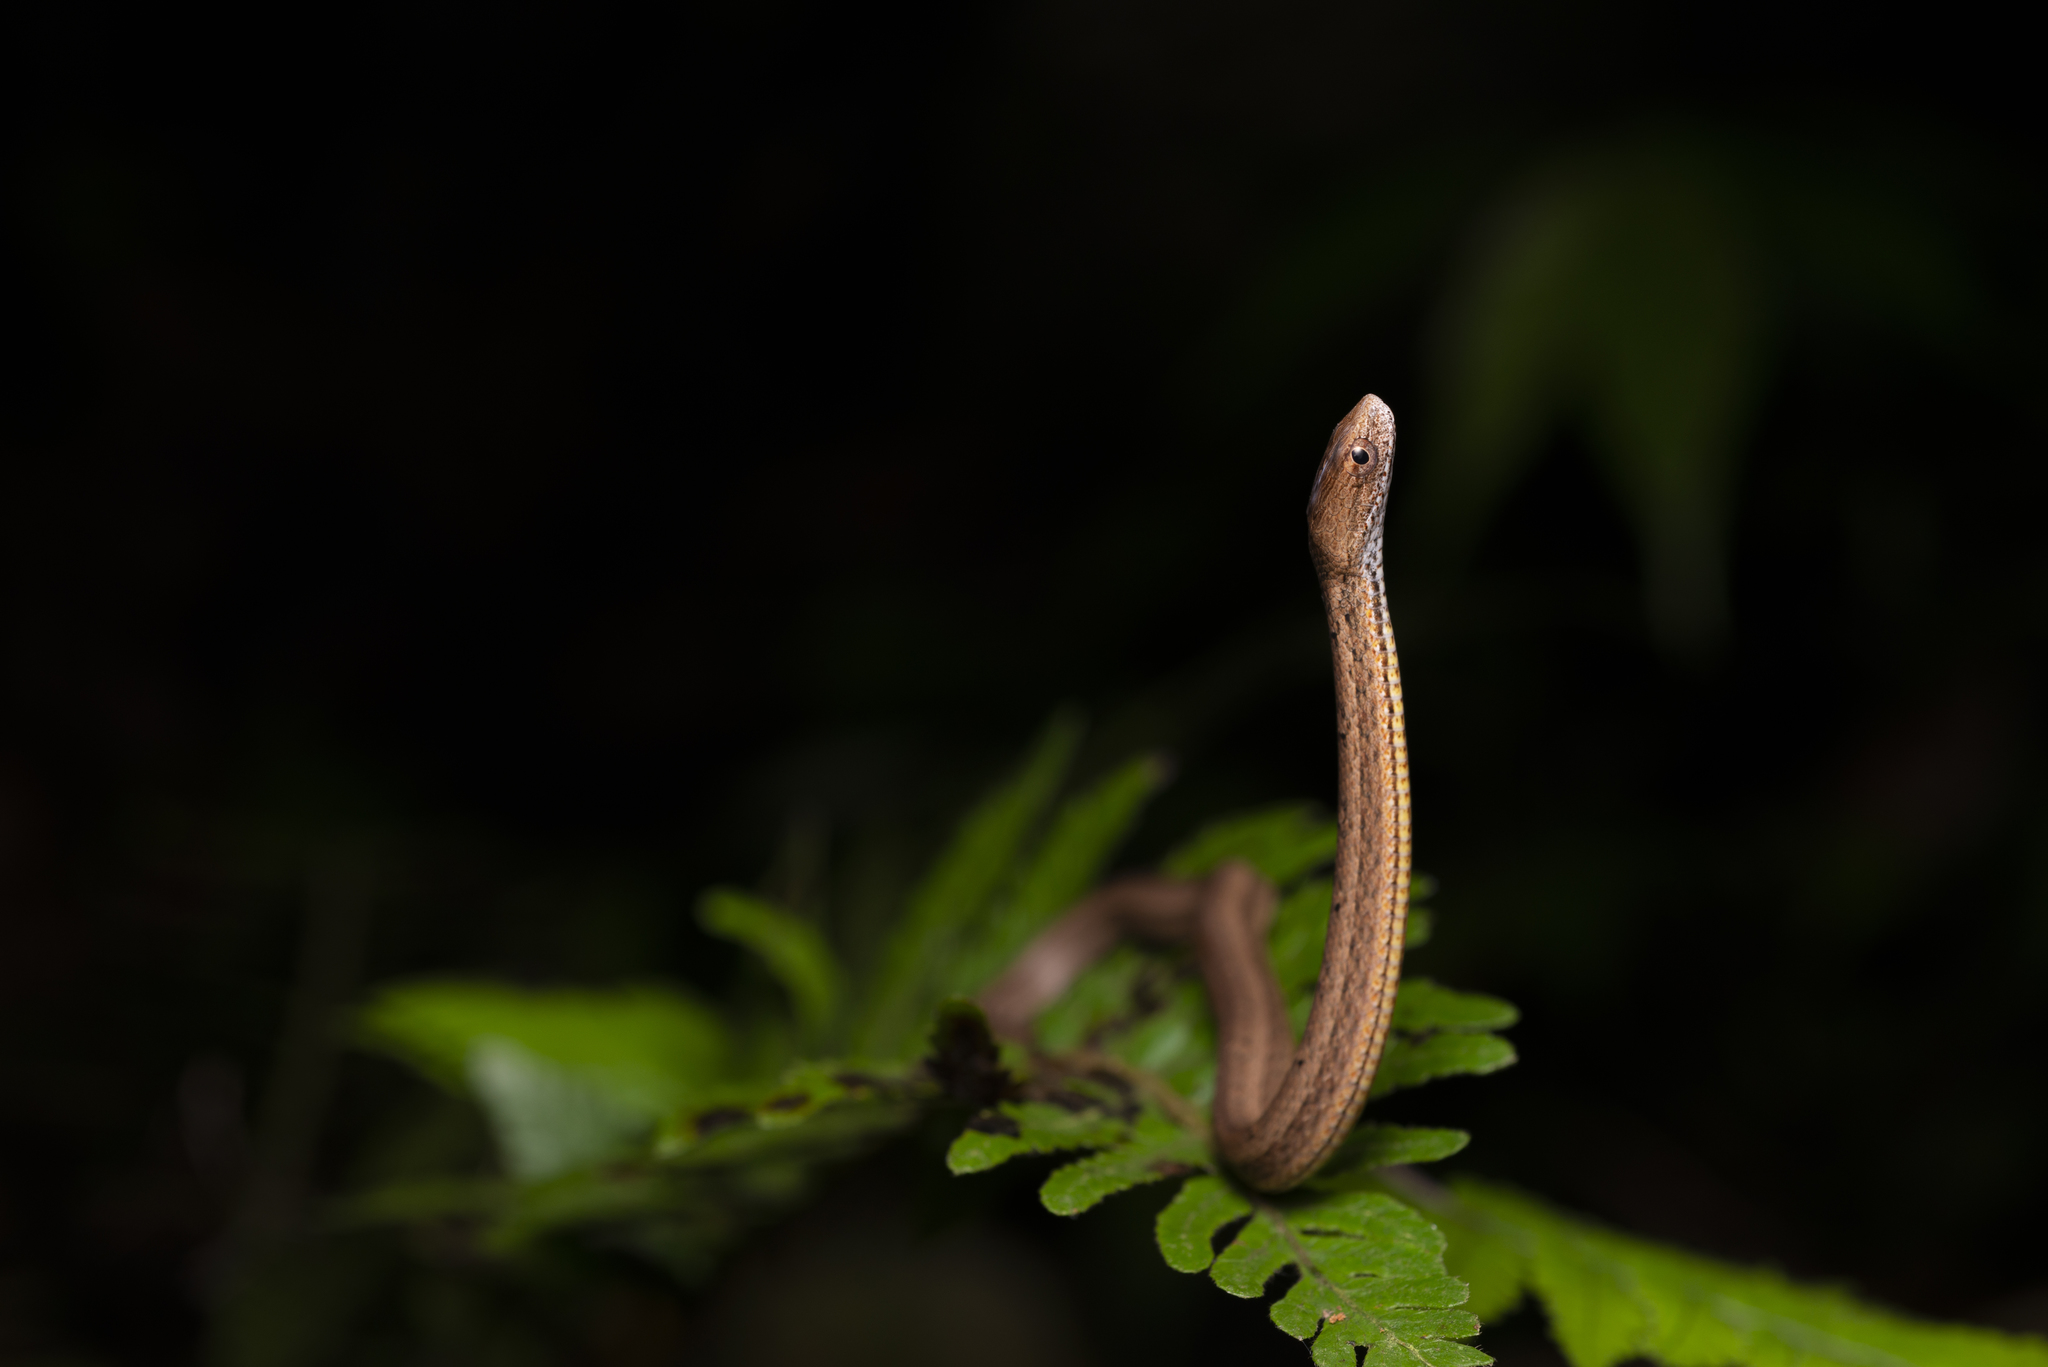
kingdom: Animalia
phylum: Chordata
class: Squamata
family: Pseudaspididae
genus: Psammodynastes
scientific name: Psammodynastes pulverulentus
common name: Common mock viper
